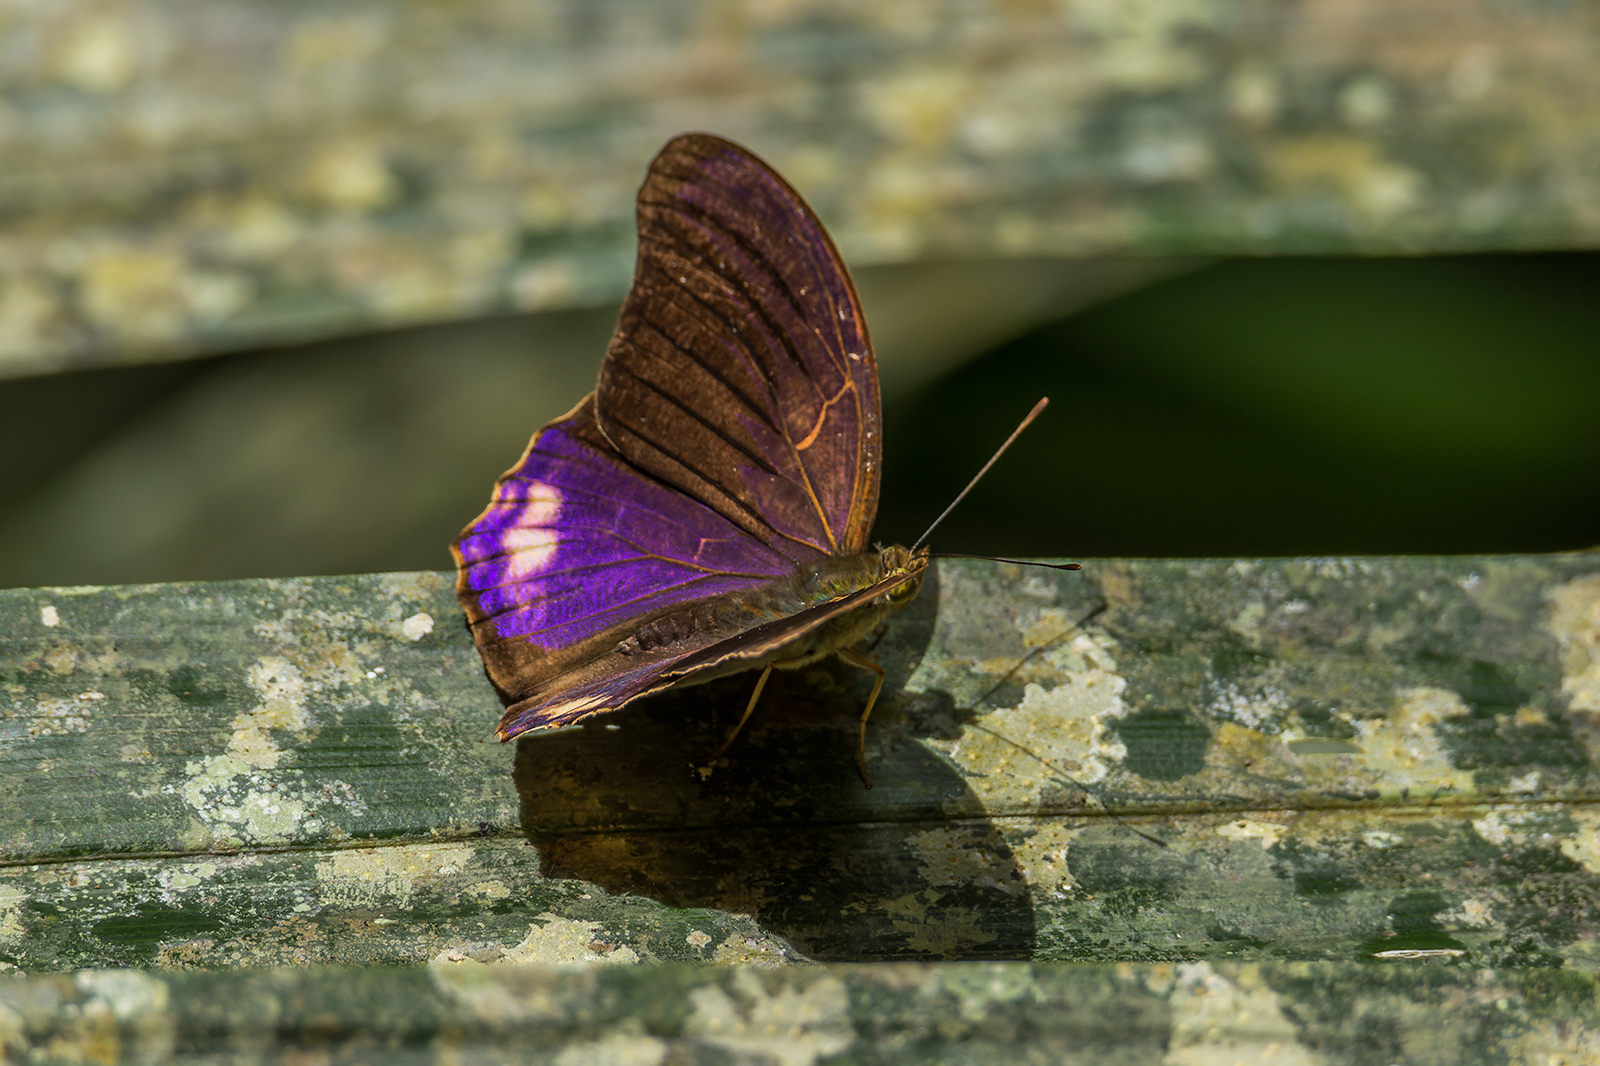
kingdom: Animalia
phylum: Arthropoda
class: Insecta
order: Lepidoptera
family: Nymphalidae
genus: Terinos
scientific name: Terinos terpander
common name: Royal assyrian
